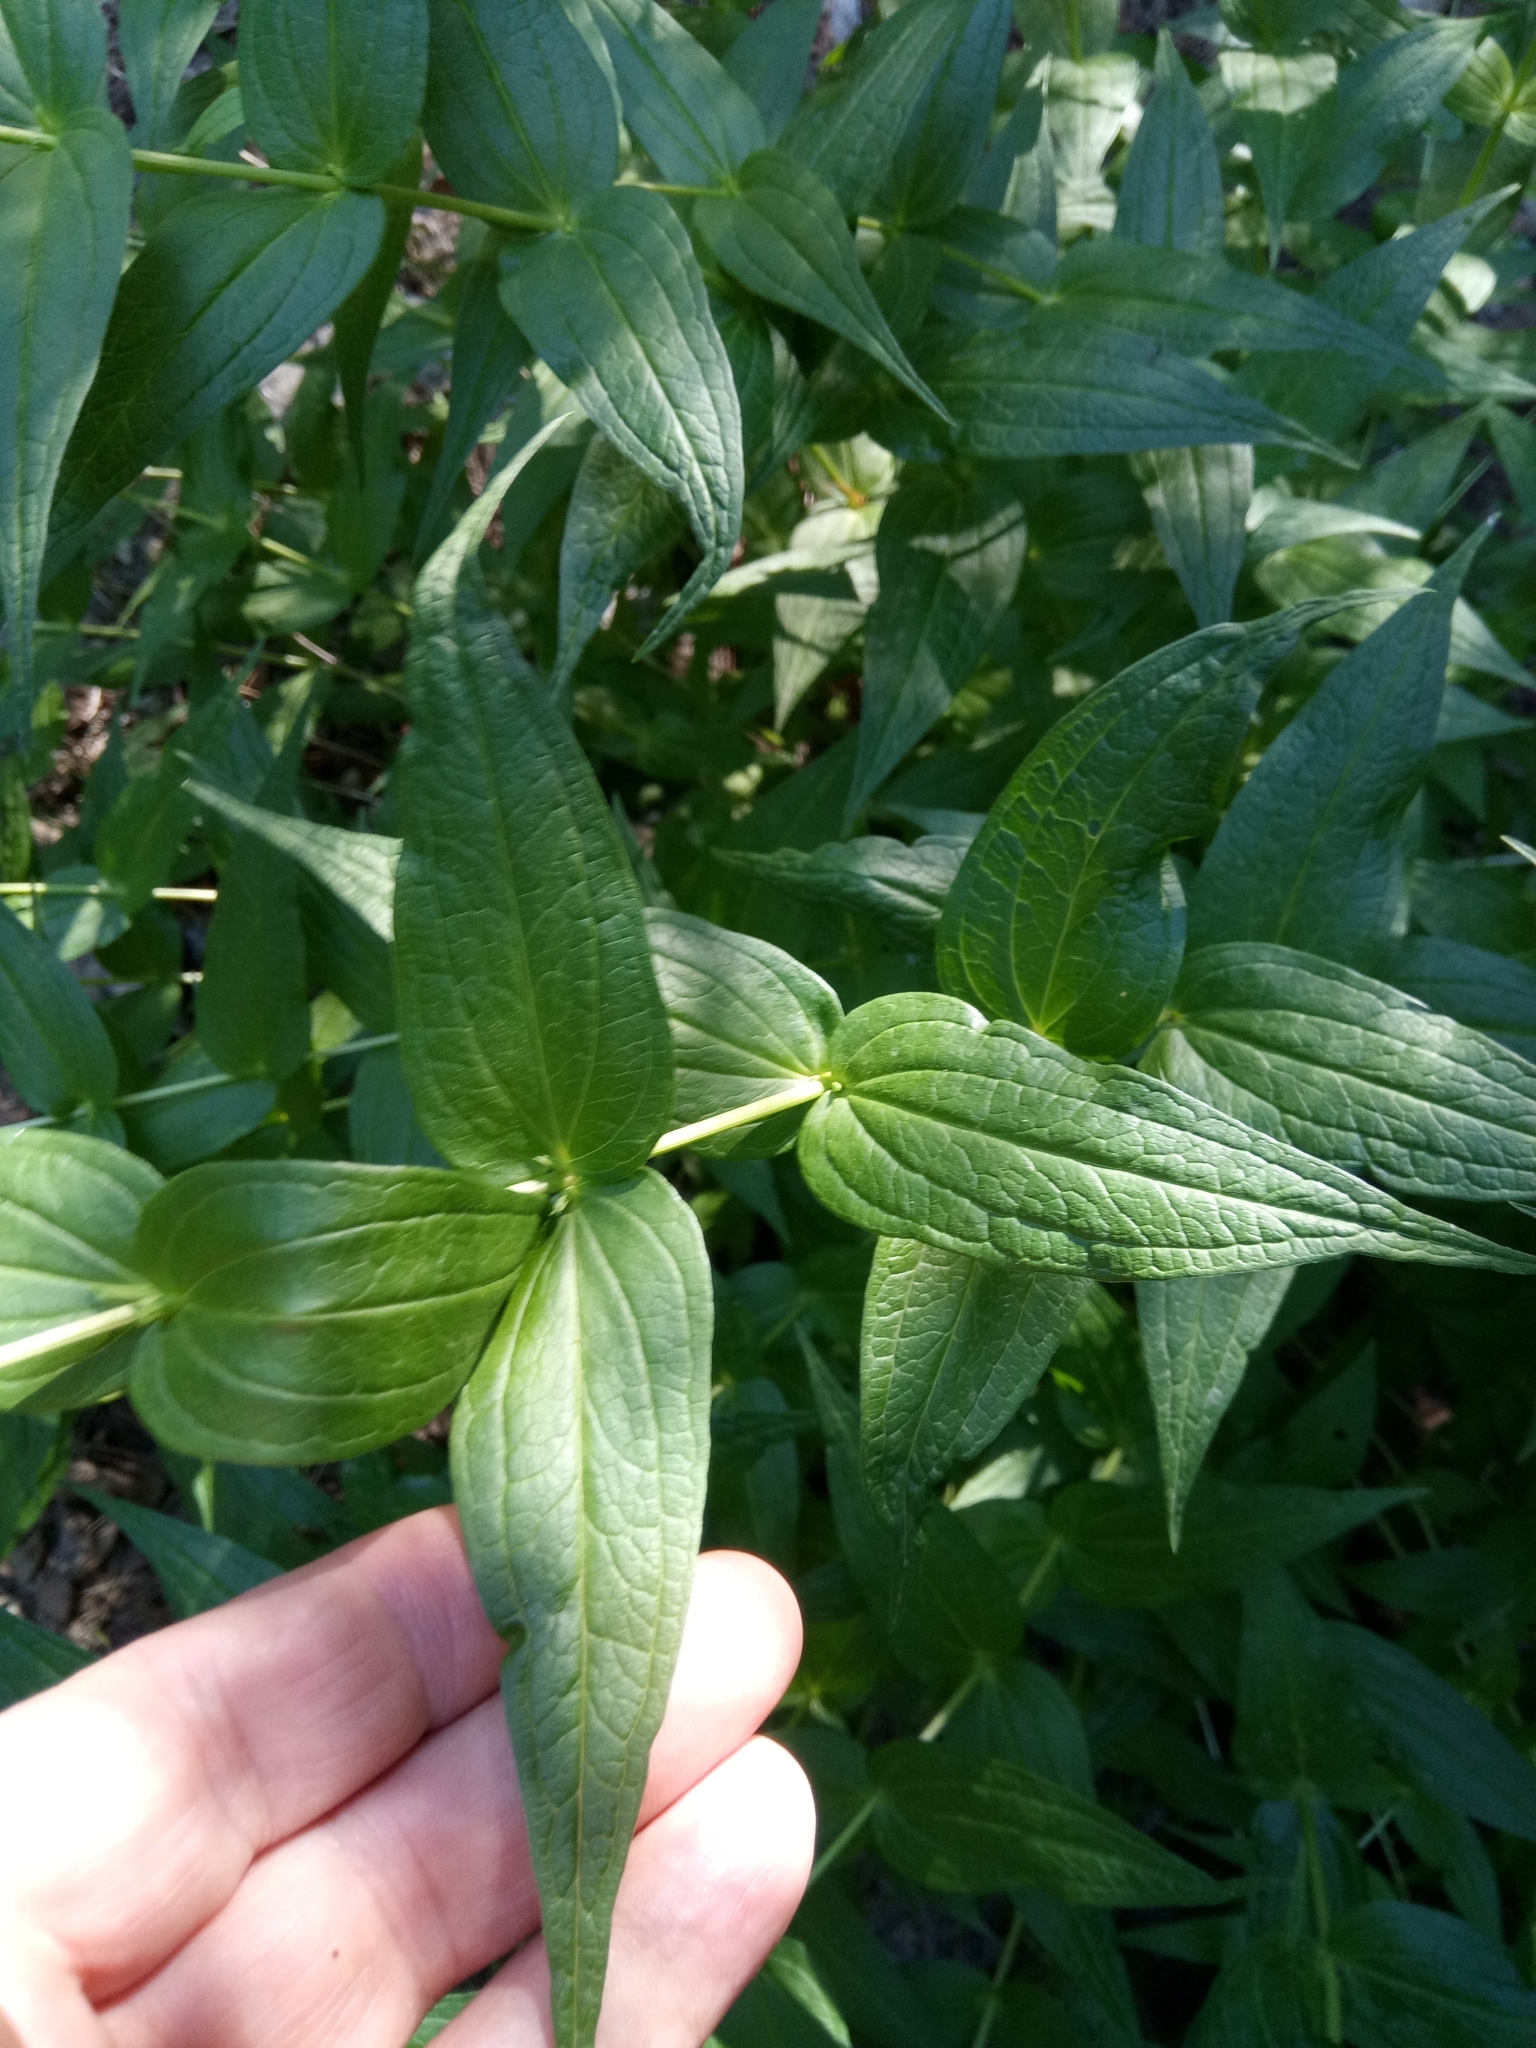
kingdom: Plantae
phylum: Tracheophyta
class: Magnoliopsida
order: Gentianales
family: Gentianaceae
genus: Gentiana
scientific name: Gentiana asclepiadea
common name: Willow gentian
